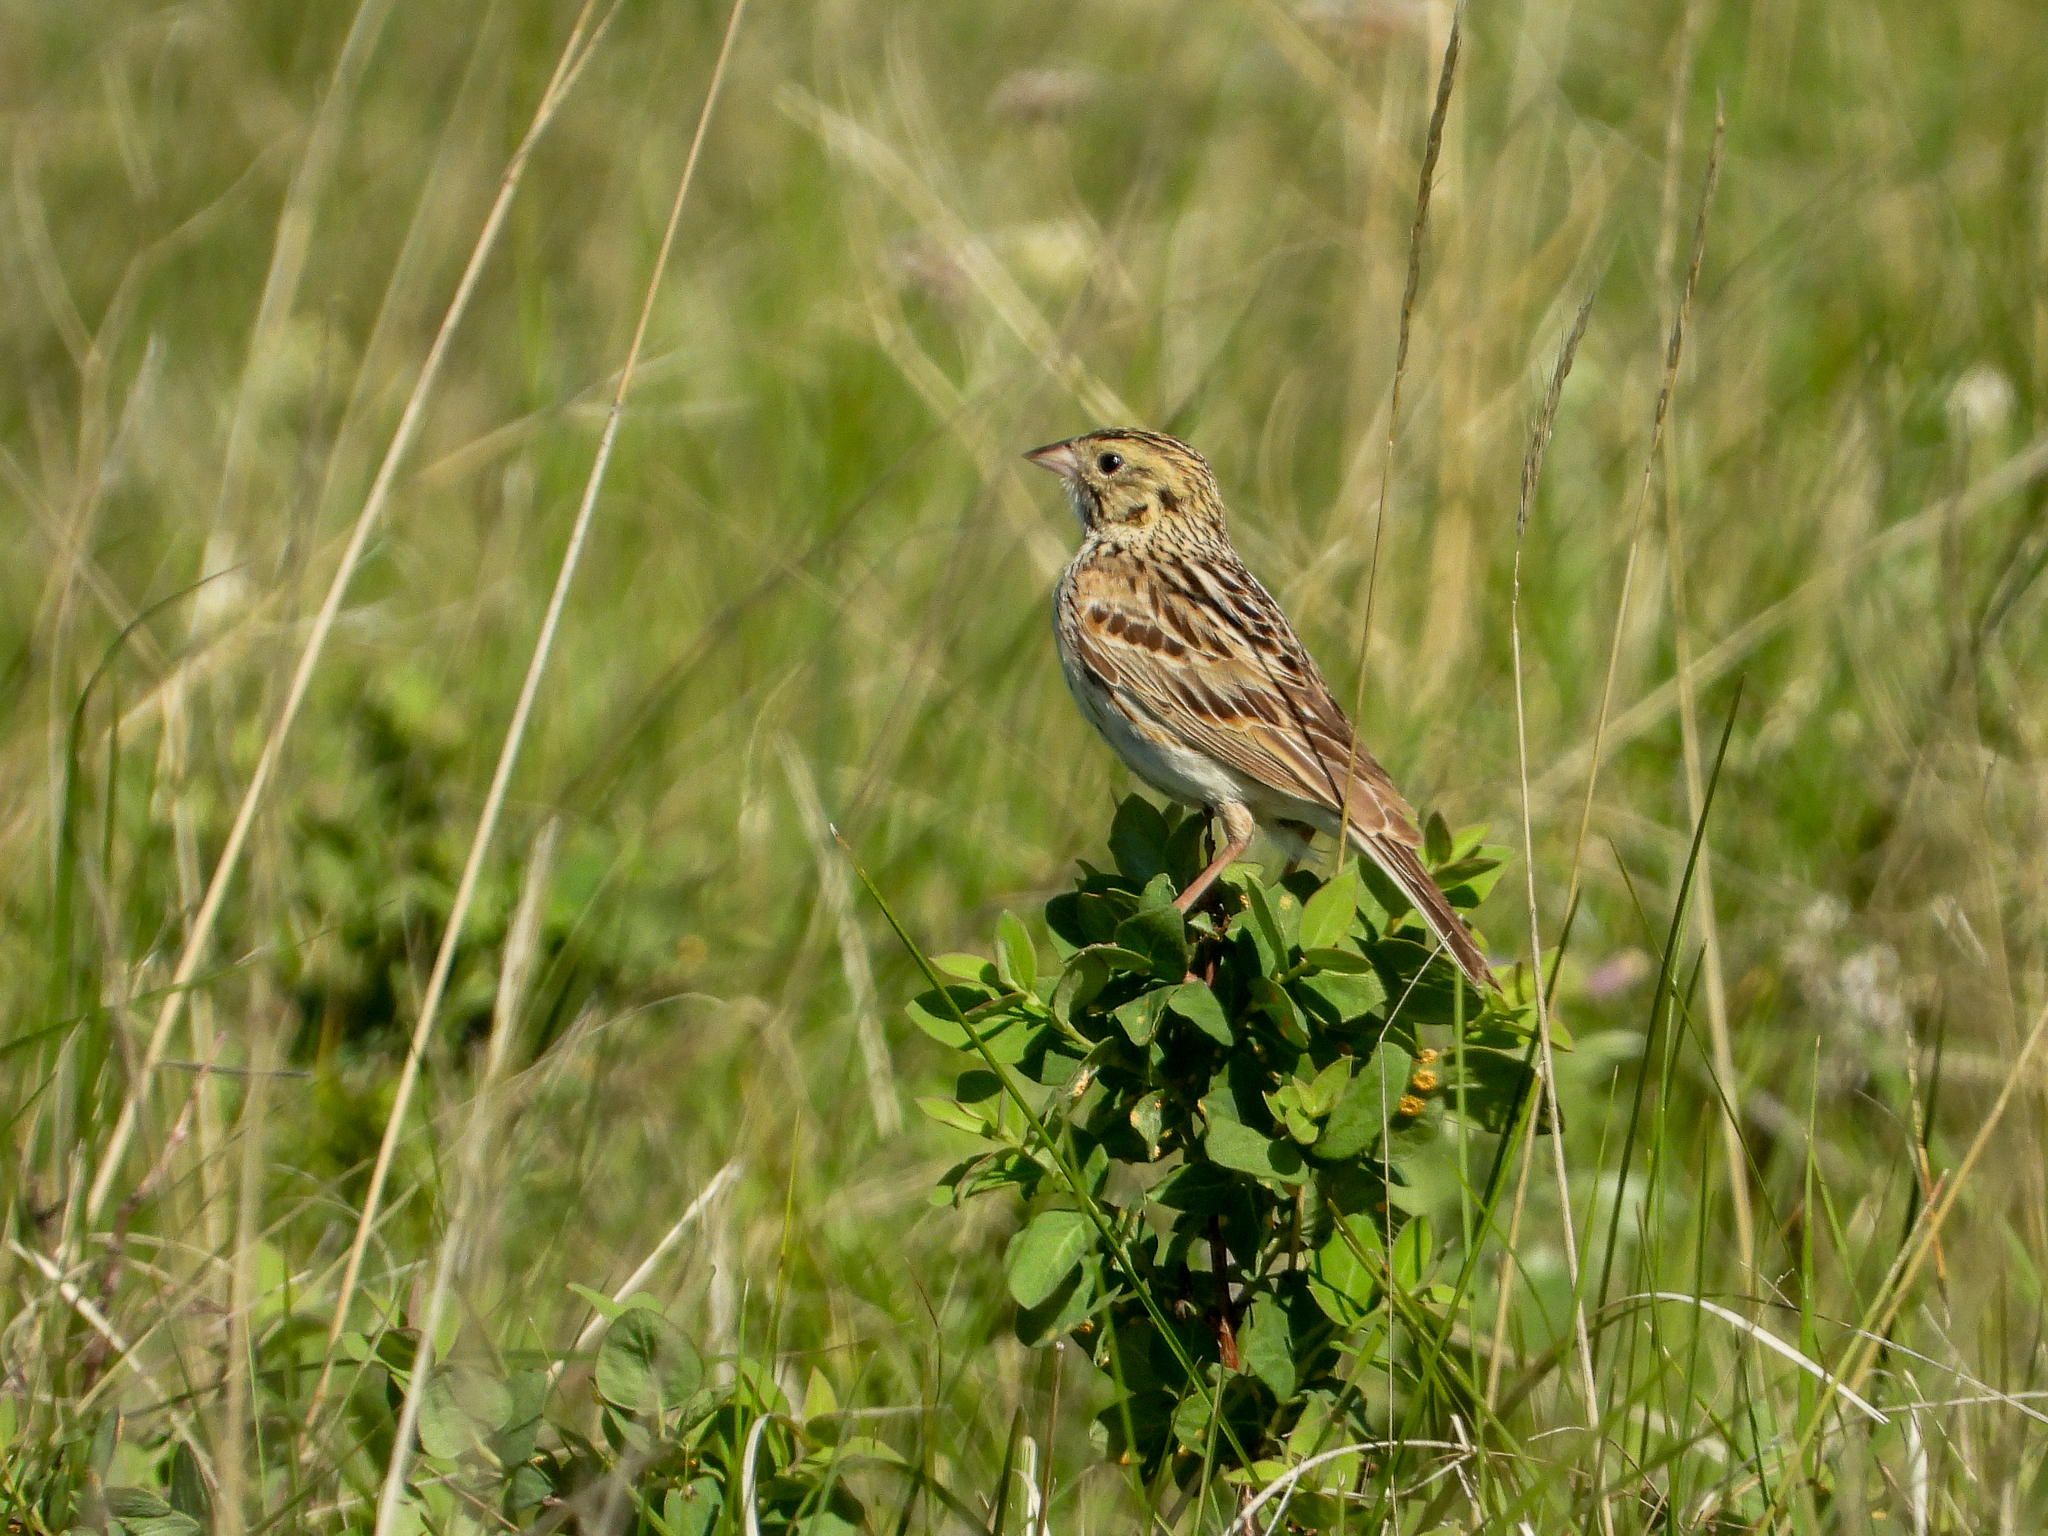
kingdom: Animalia
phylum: Chordata
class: Aves
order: Passeriformes
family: Passerellidae
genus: Centronyx
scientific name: Centronyx bairdii
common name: Baird's sparrow
